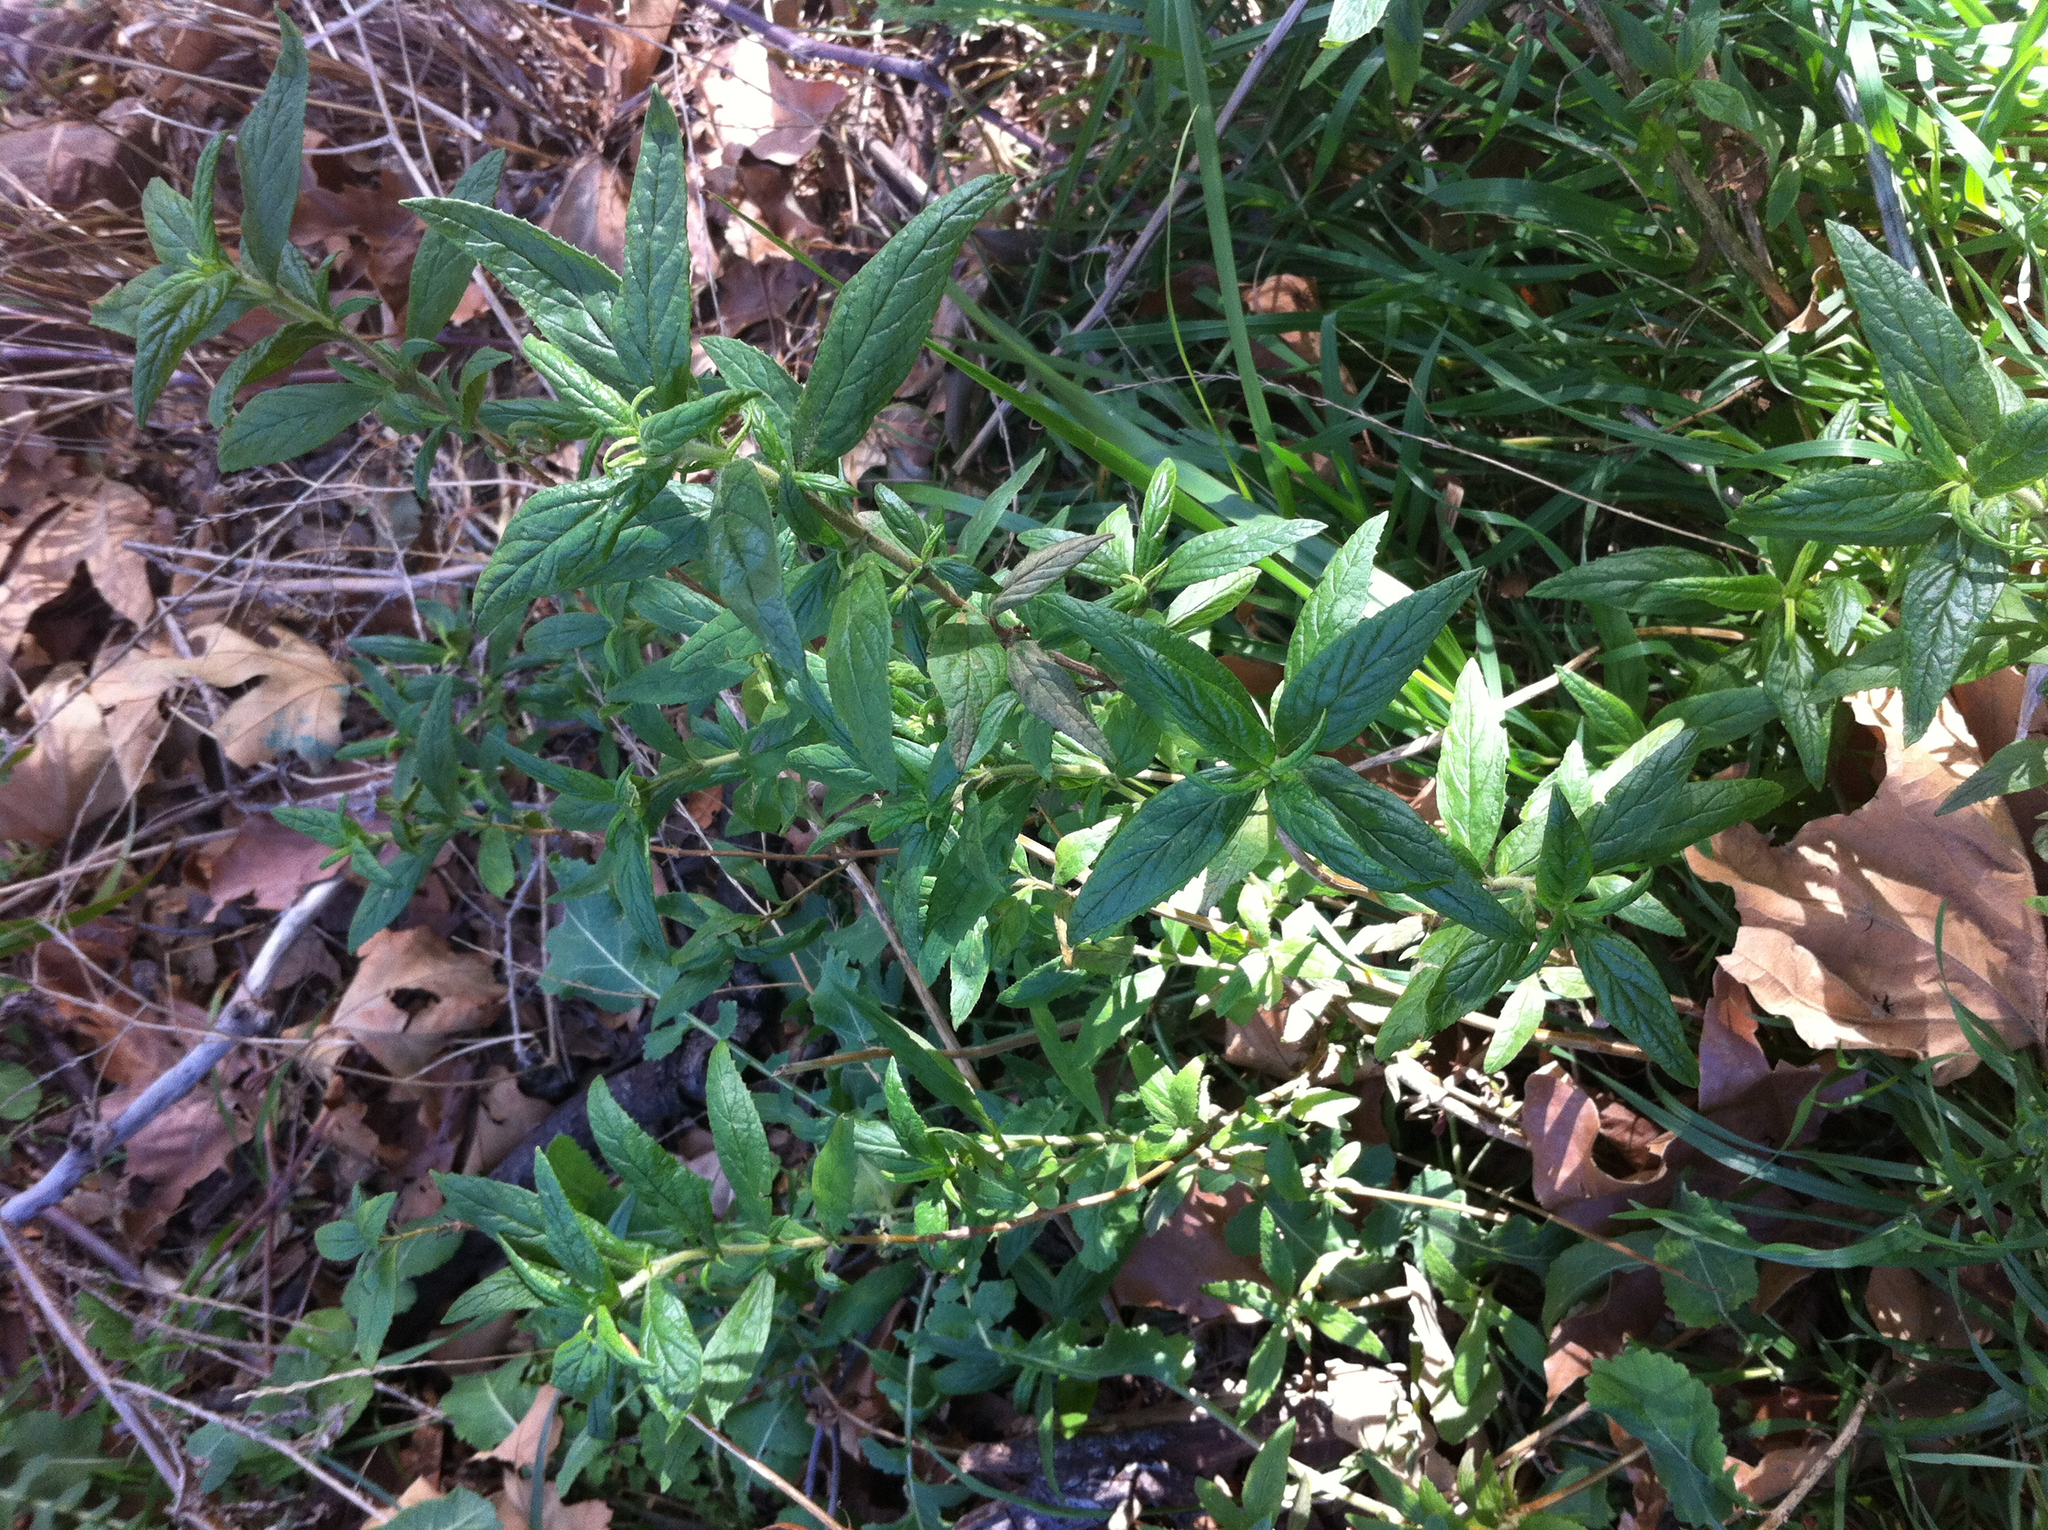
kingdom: Plantae
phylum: Tracheophyta
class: Magnoliopsida
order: Lamiales
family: Phrymaceae
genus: Diplacus
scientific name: Diplacus longiflorus
